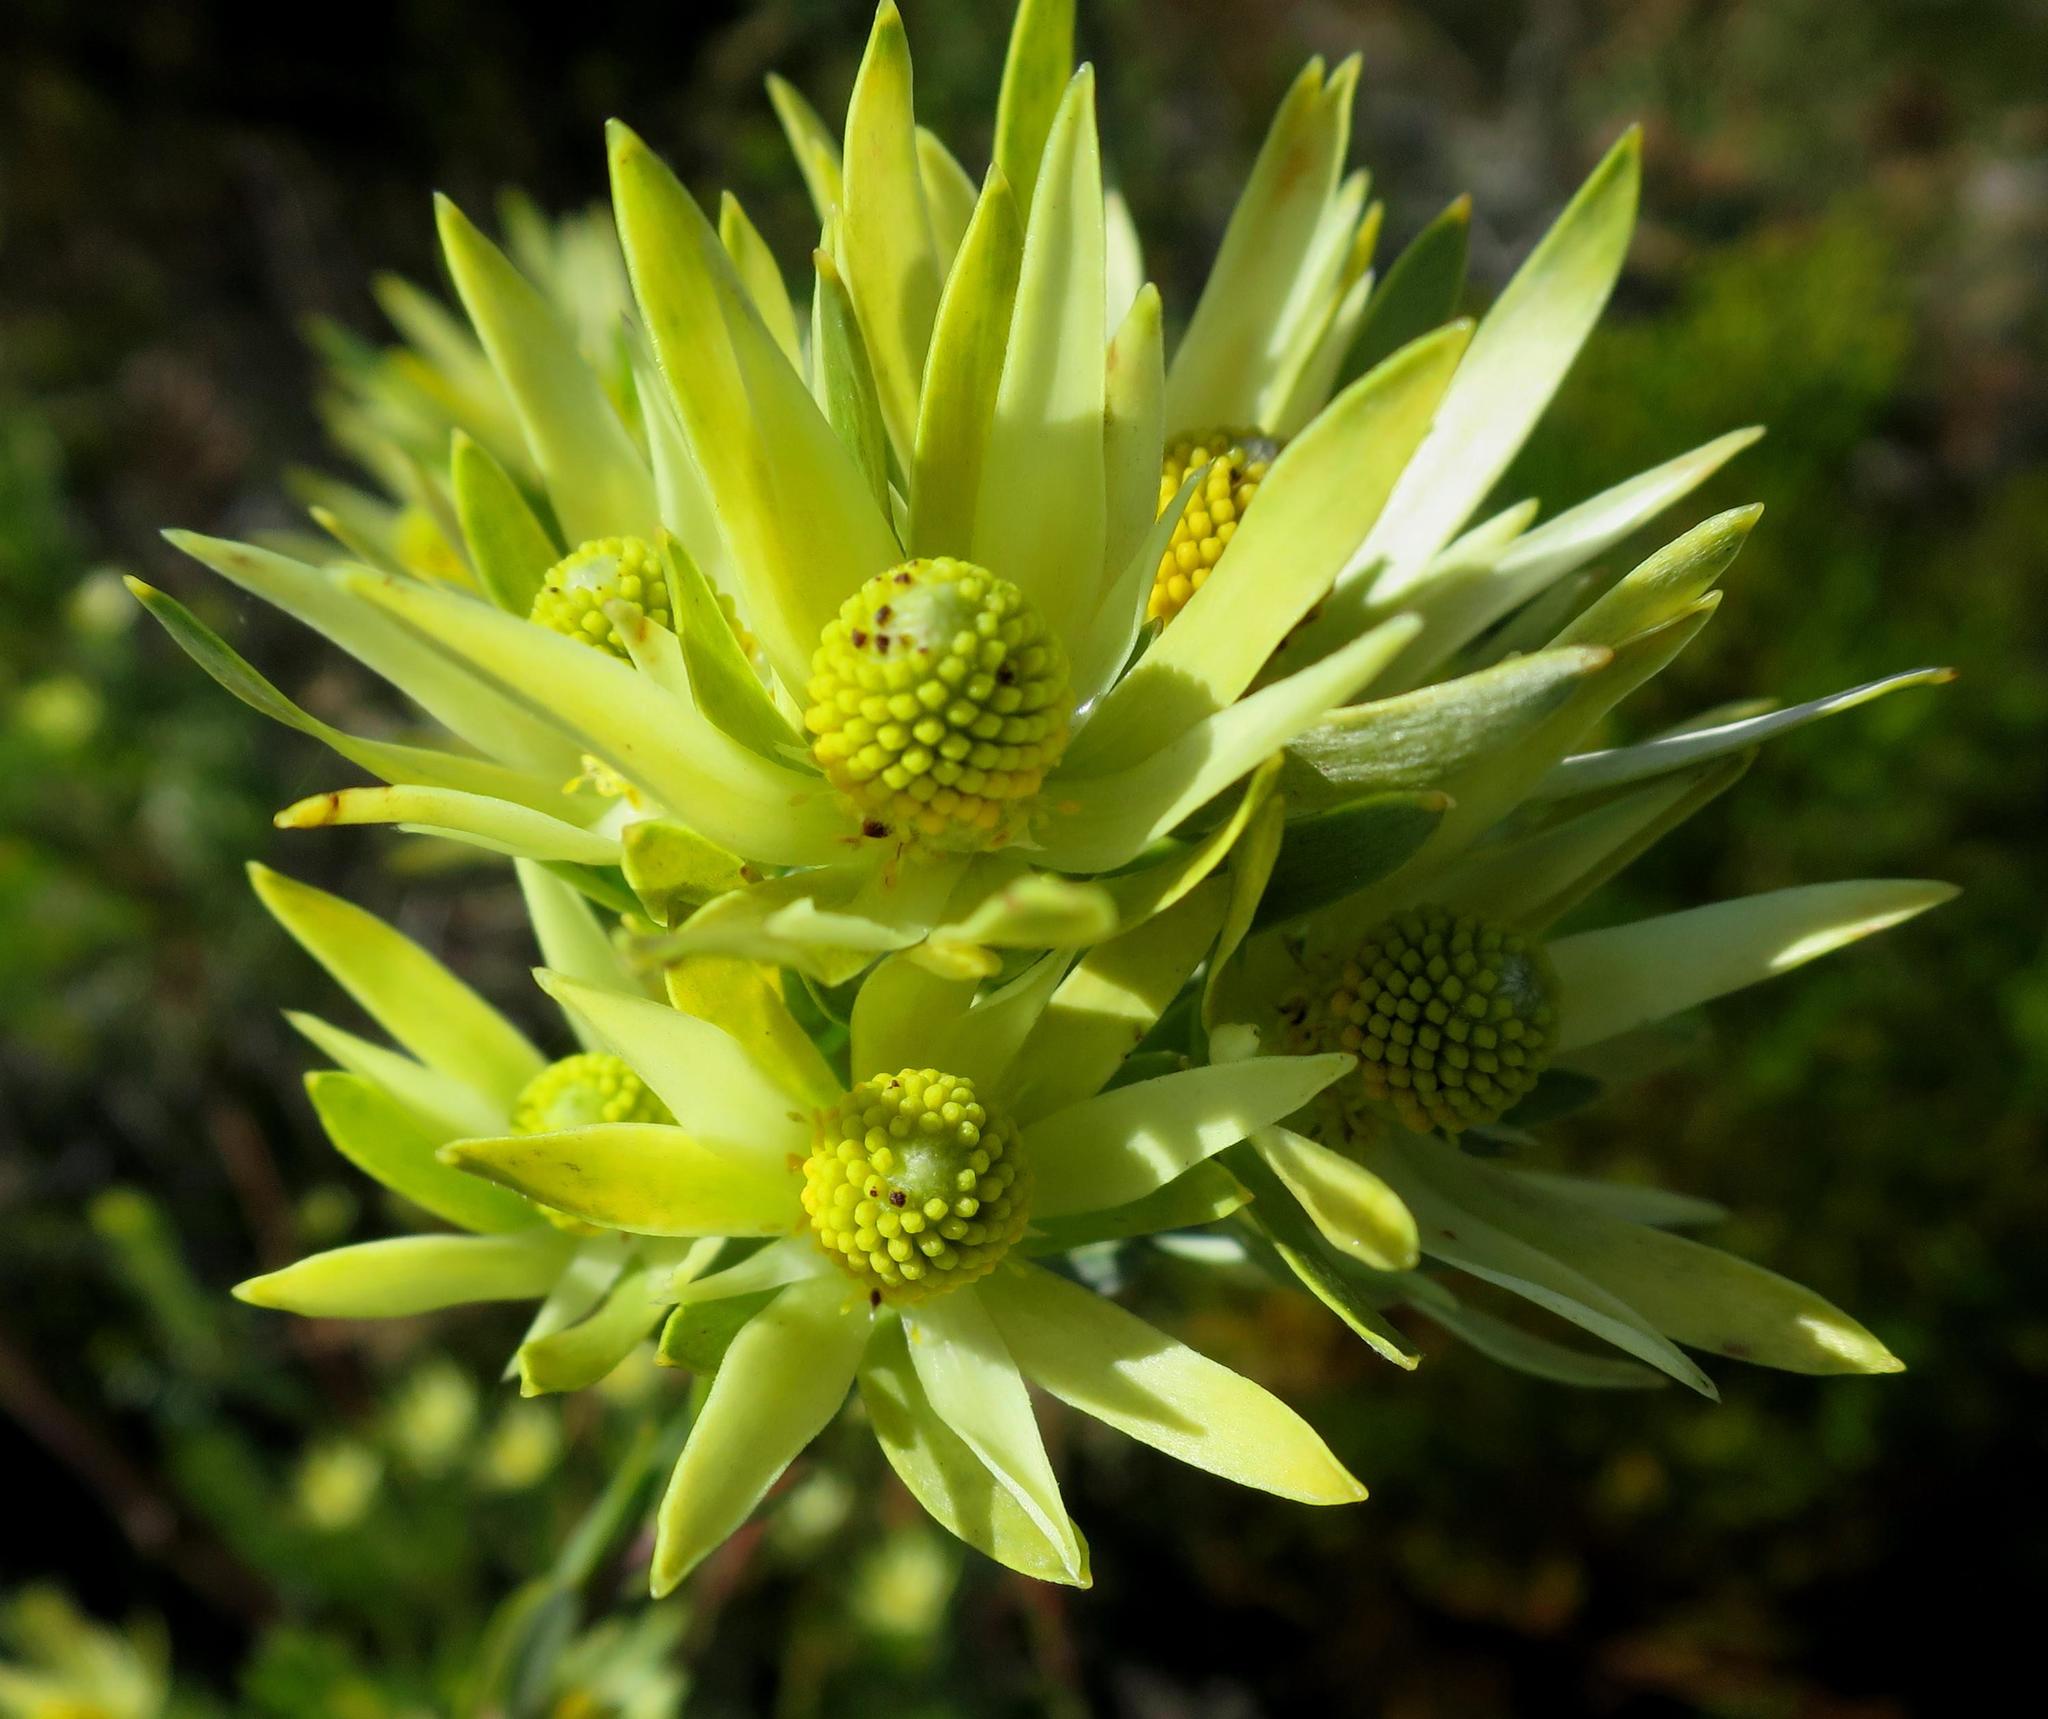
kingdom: Plantae
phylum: Tracheophyta
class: Magnoliopsida
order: Proteales
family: Proteaceae
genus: Leucadendron
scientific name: Leucadendron uliginosum
